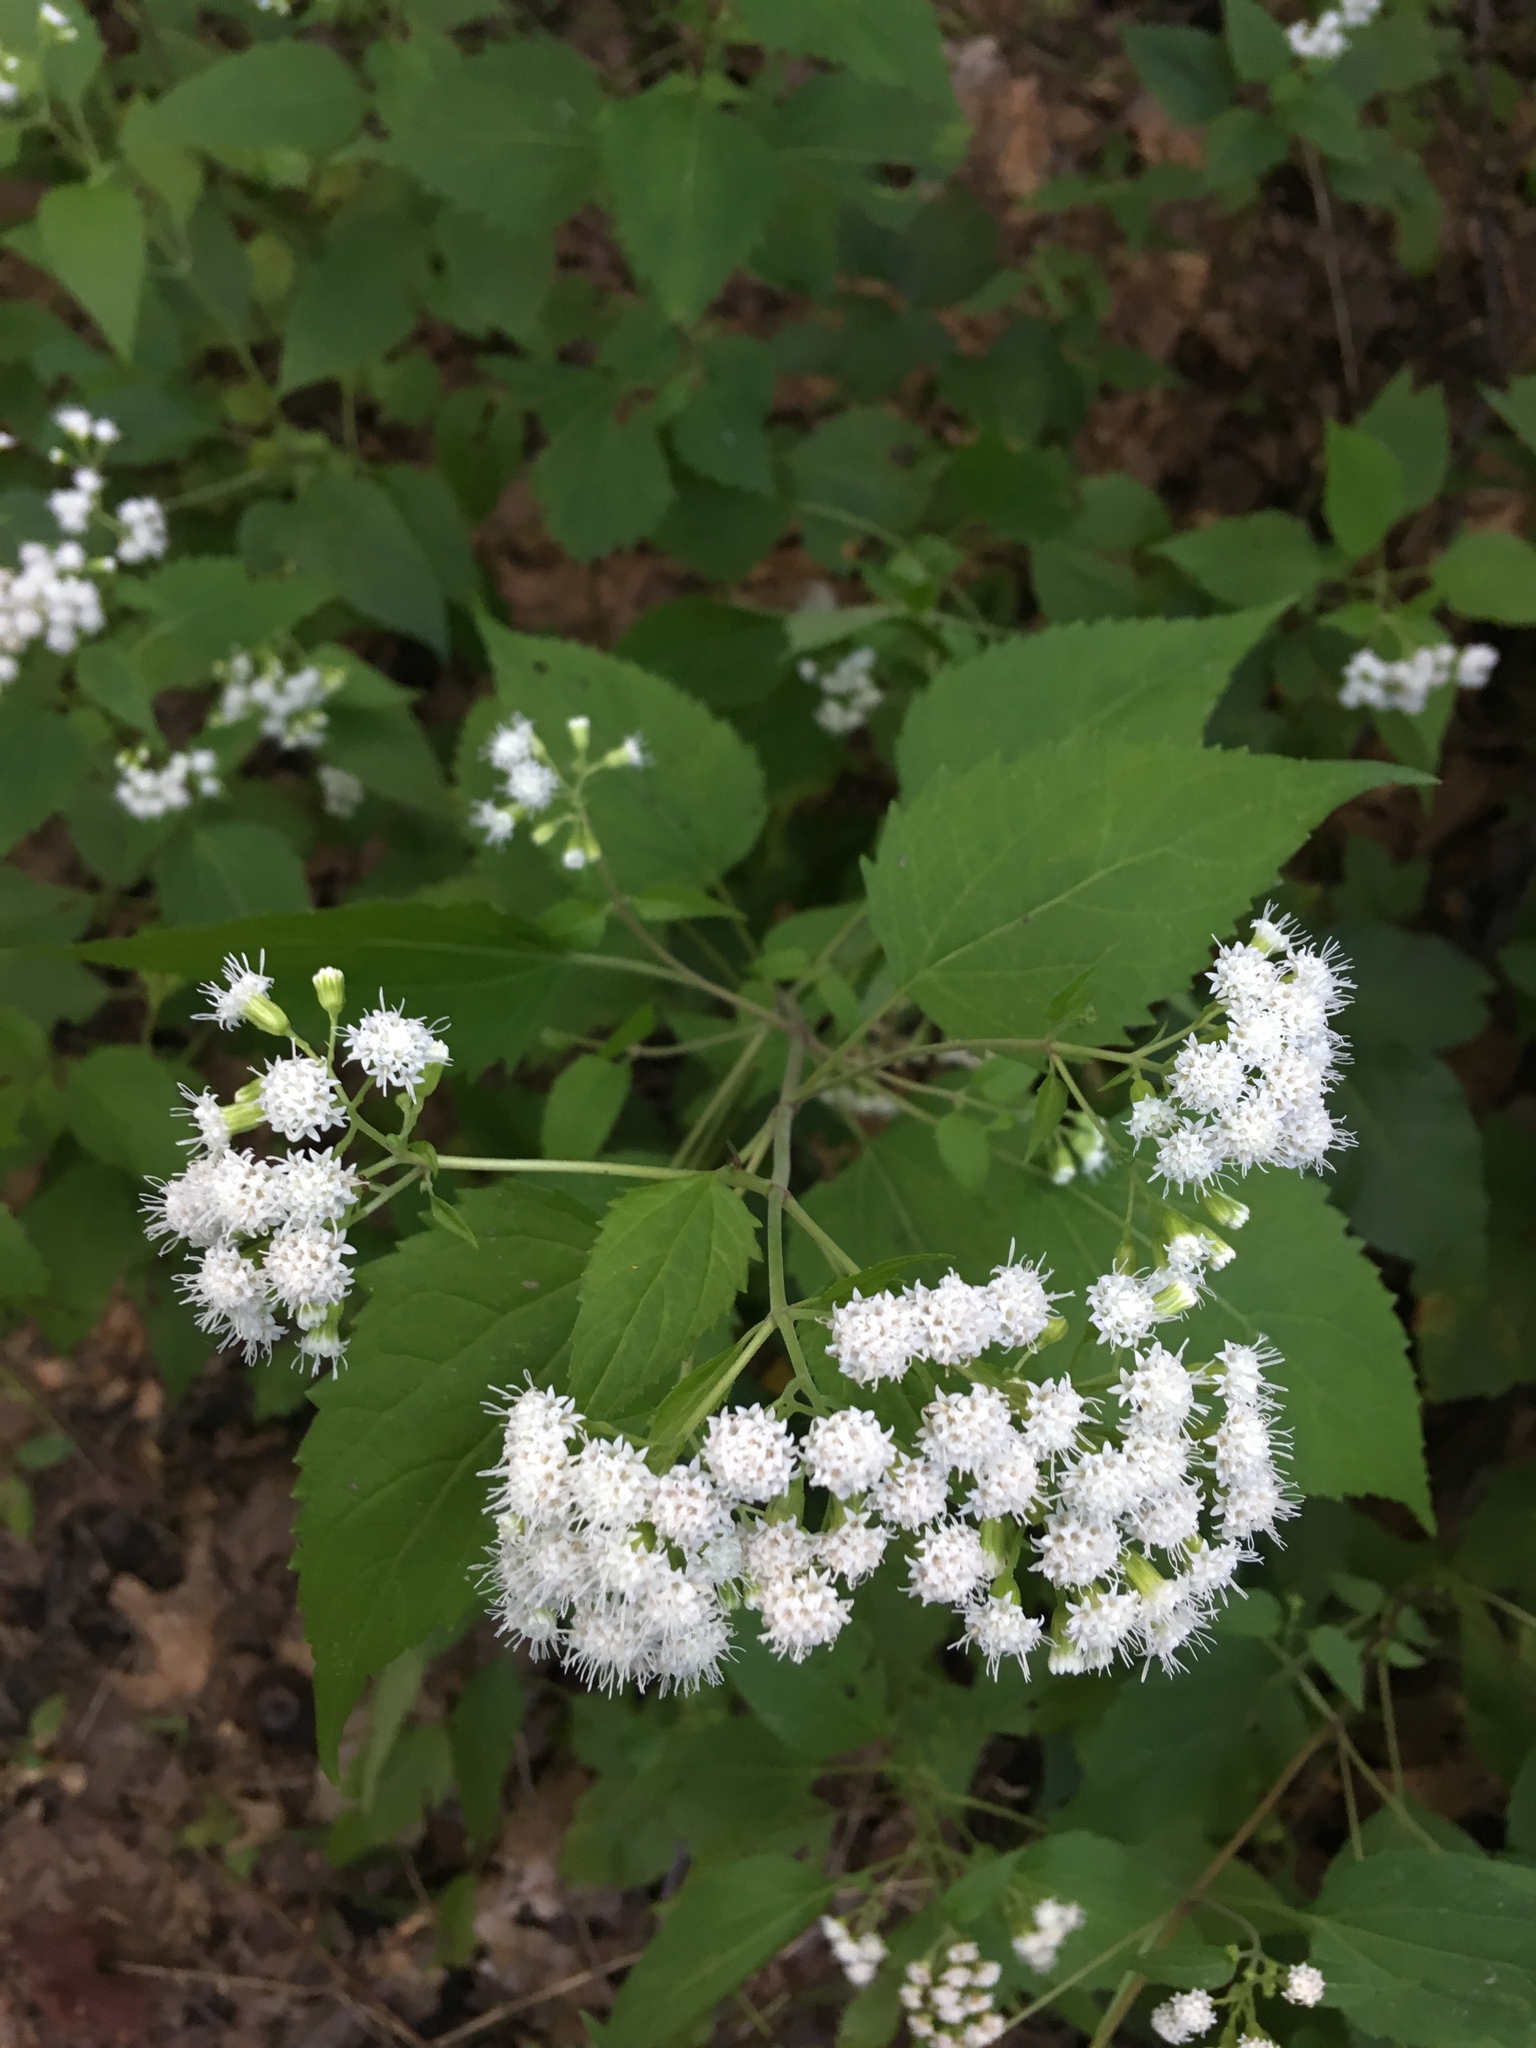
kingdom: Plantae
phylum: Tracheophyta
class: Magnoliopsida
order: Asterales
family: Asteraceae
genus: Ageratina
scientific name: Ageratina altissima
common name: White snakeroot
